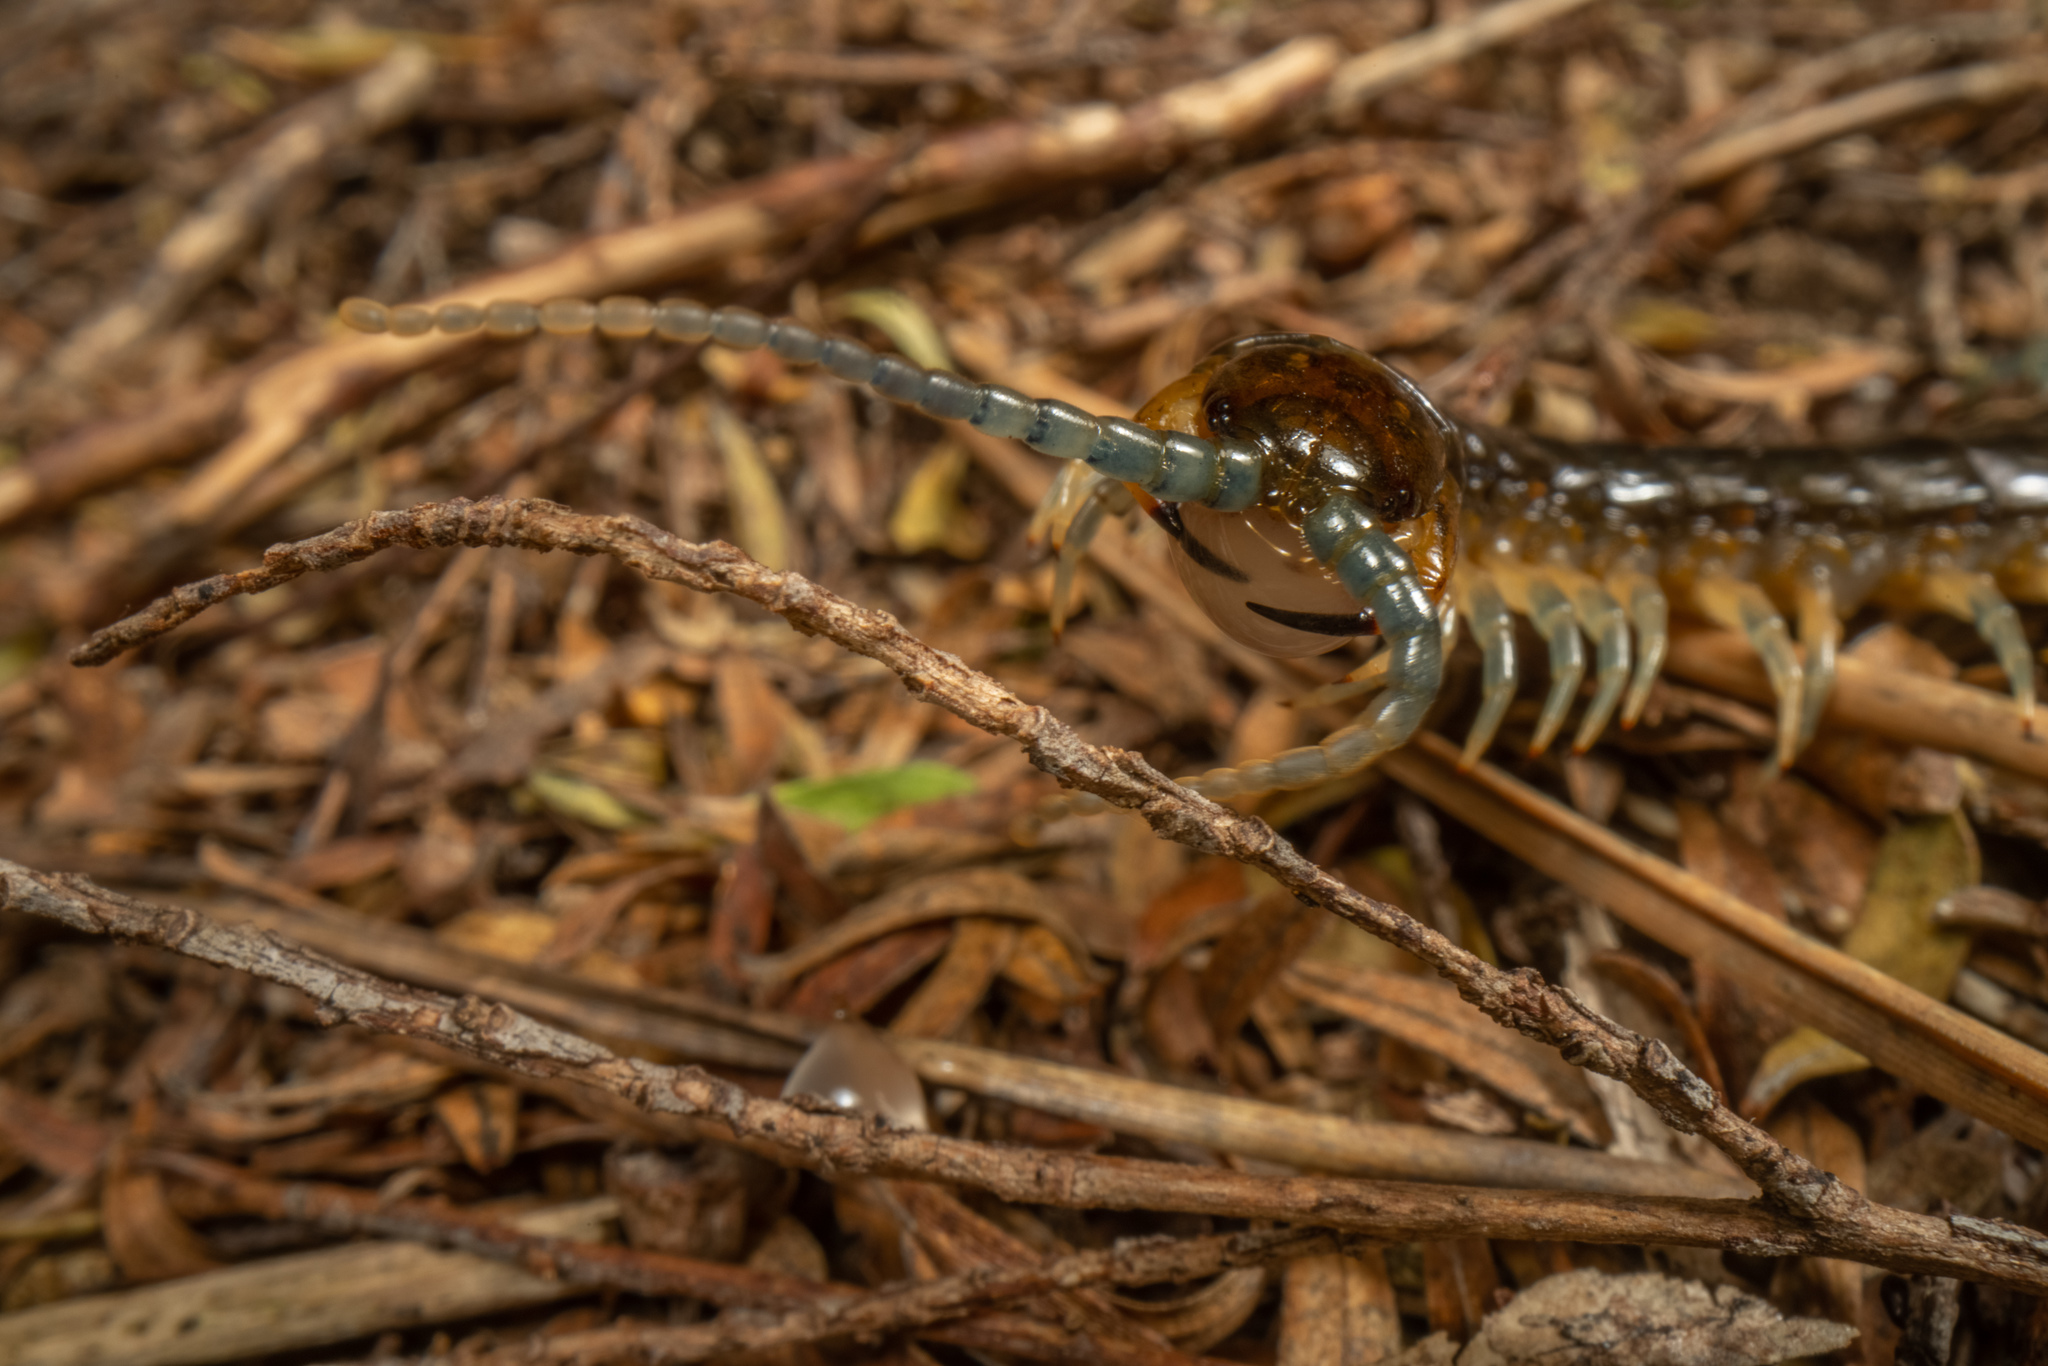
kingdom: Animalia
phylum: Arthropoda
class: Chilopoda
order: Scolopendromorpha
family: Scolopendridae
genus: Cormocephalus
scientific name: Cormocephalus rubriceps
